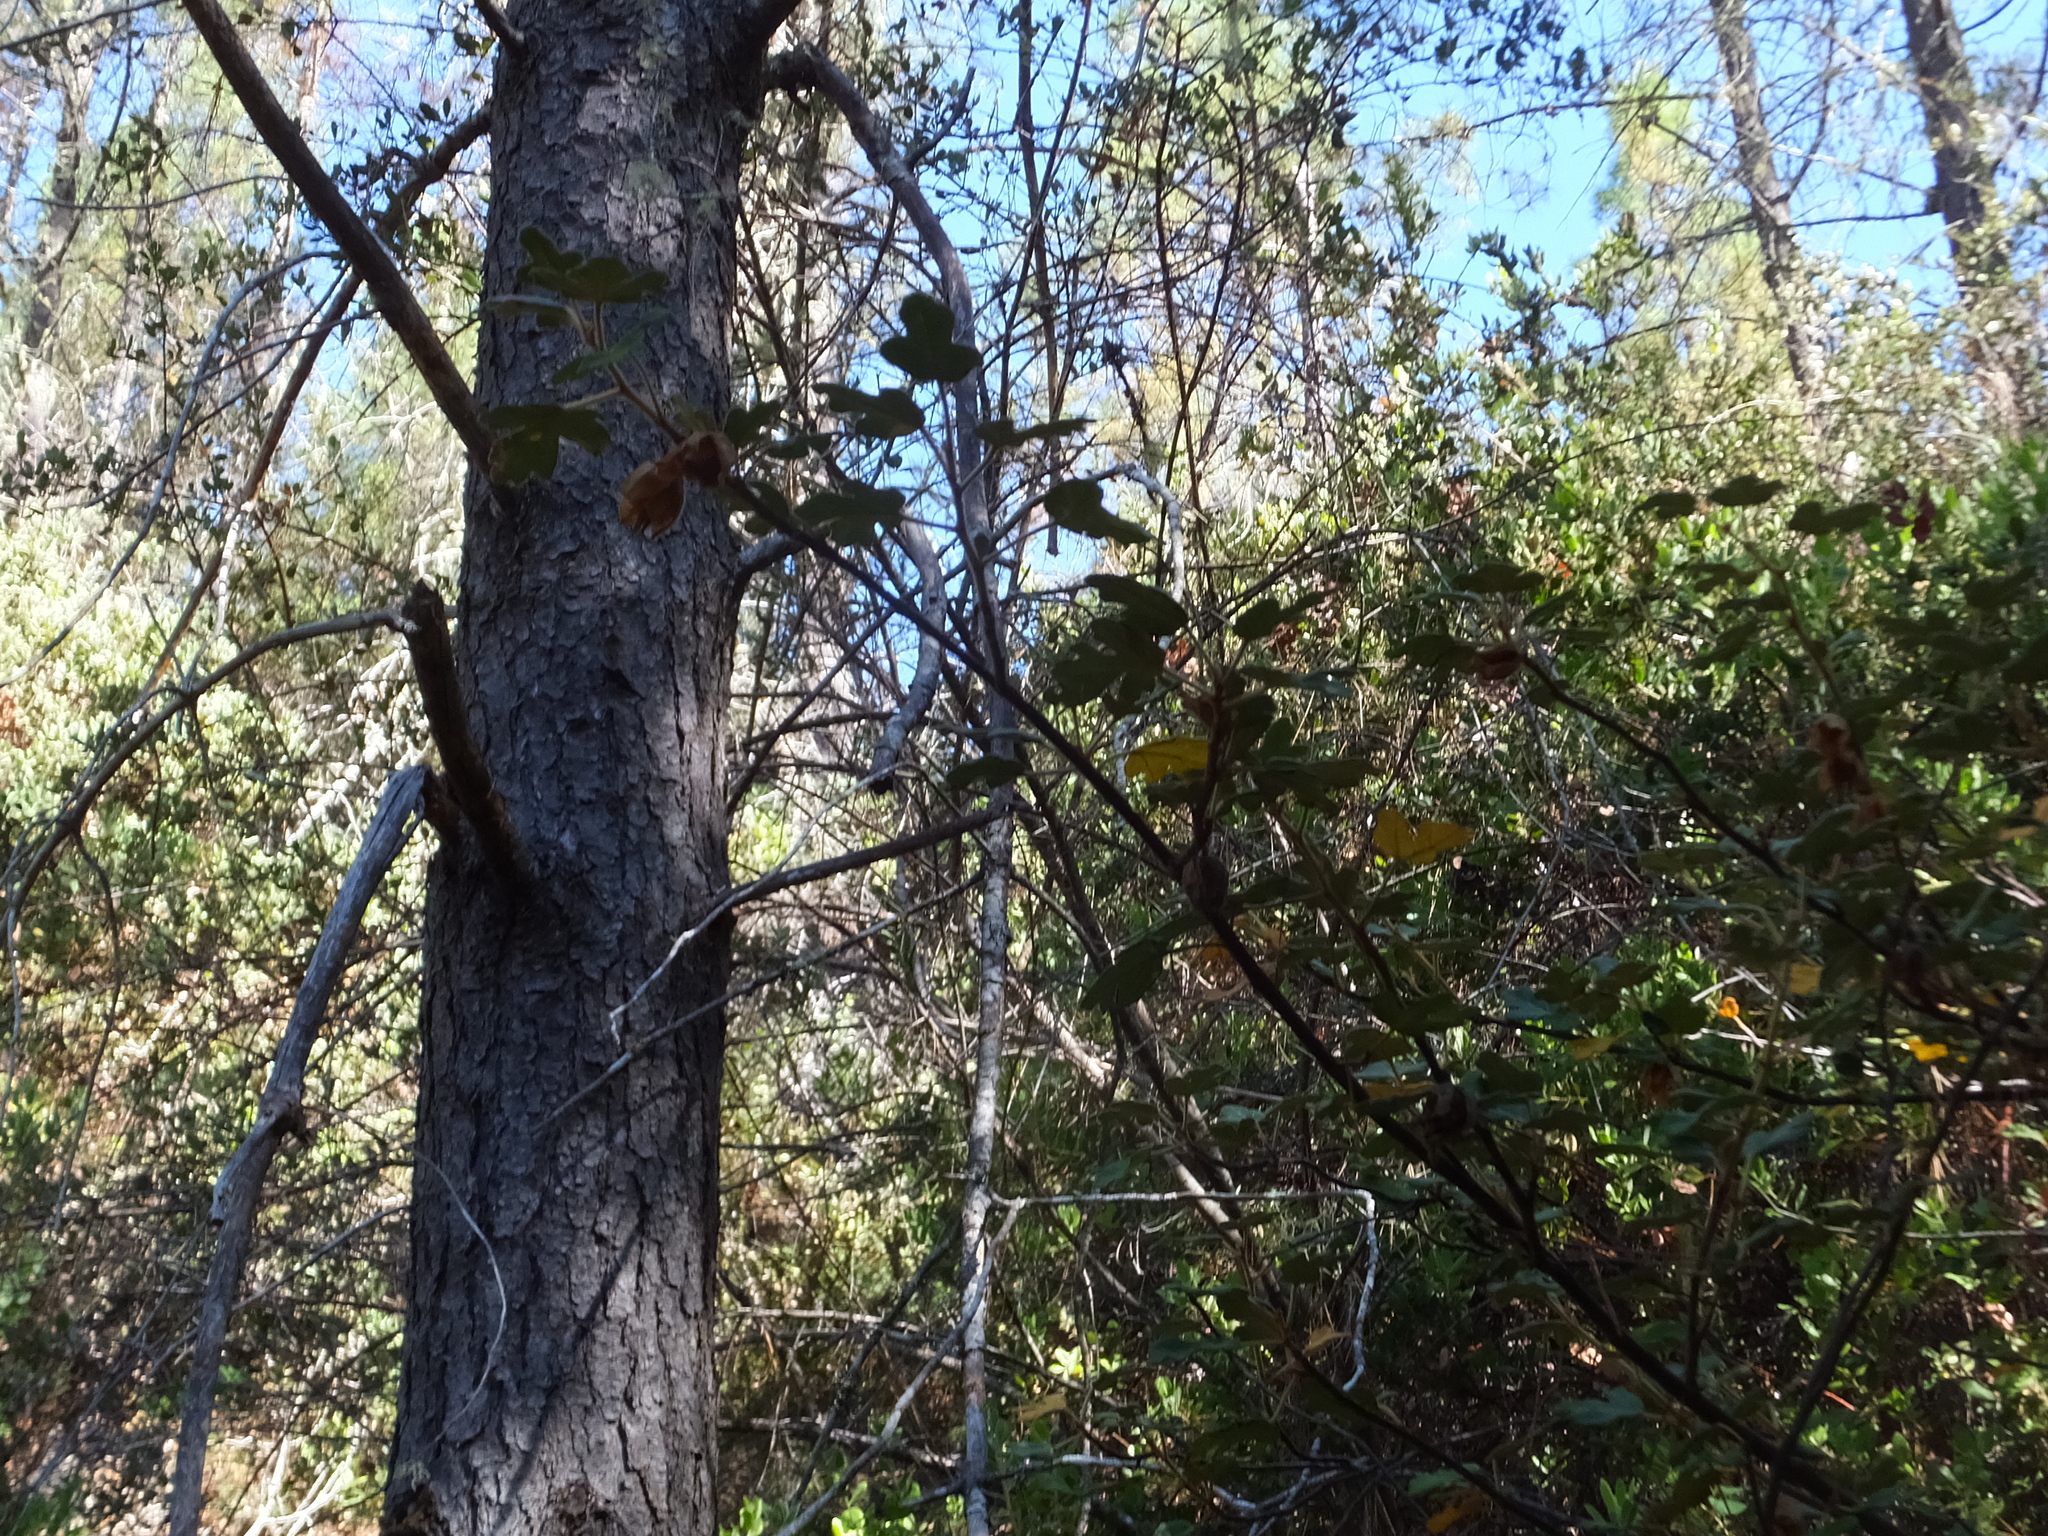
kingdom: Plantae
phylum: Tracheophyta
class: Magnoliopsida
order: Malvales
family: Malvaceae
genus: Fremontodendron
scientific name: Fremontodendron californicum
